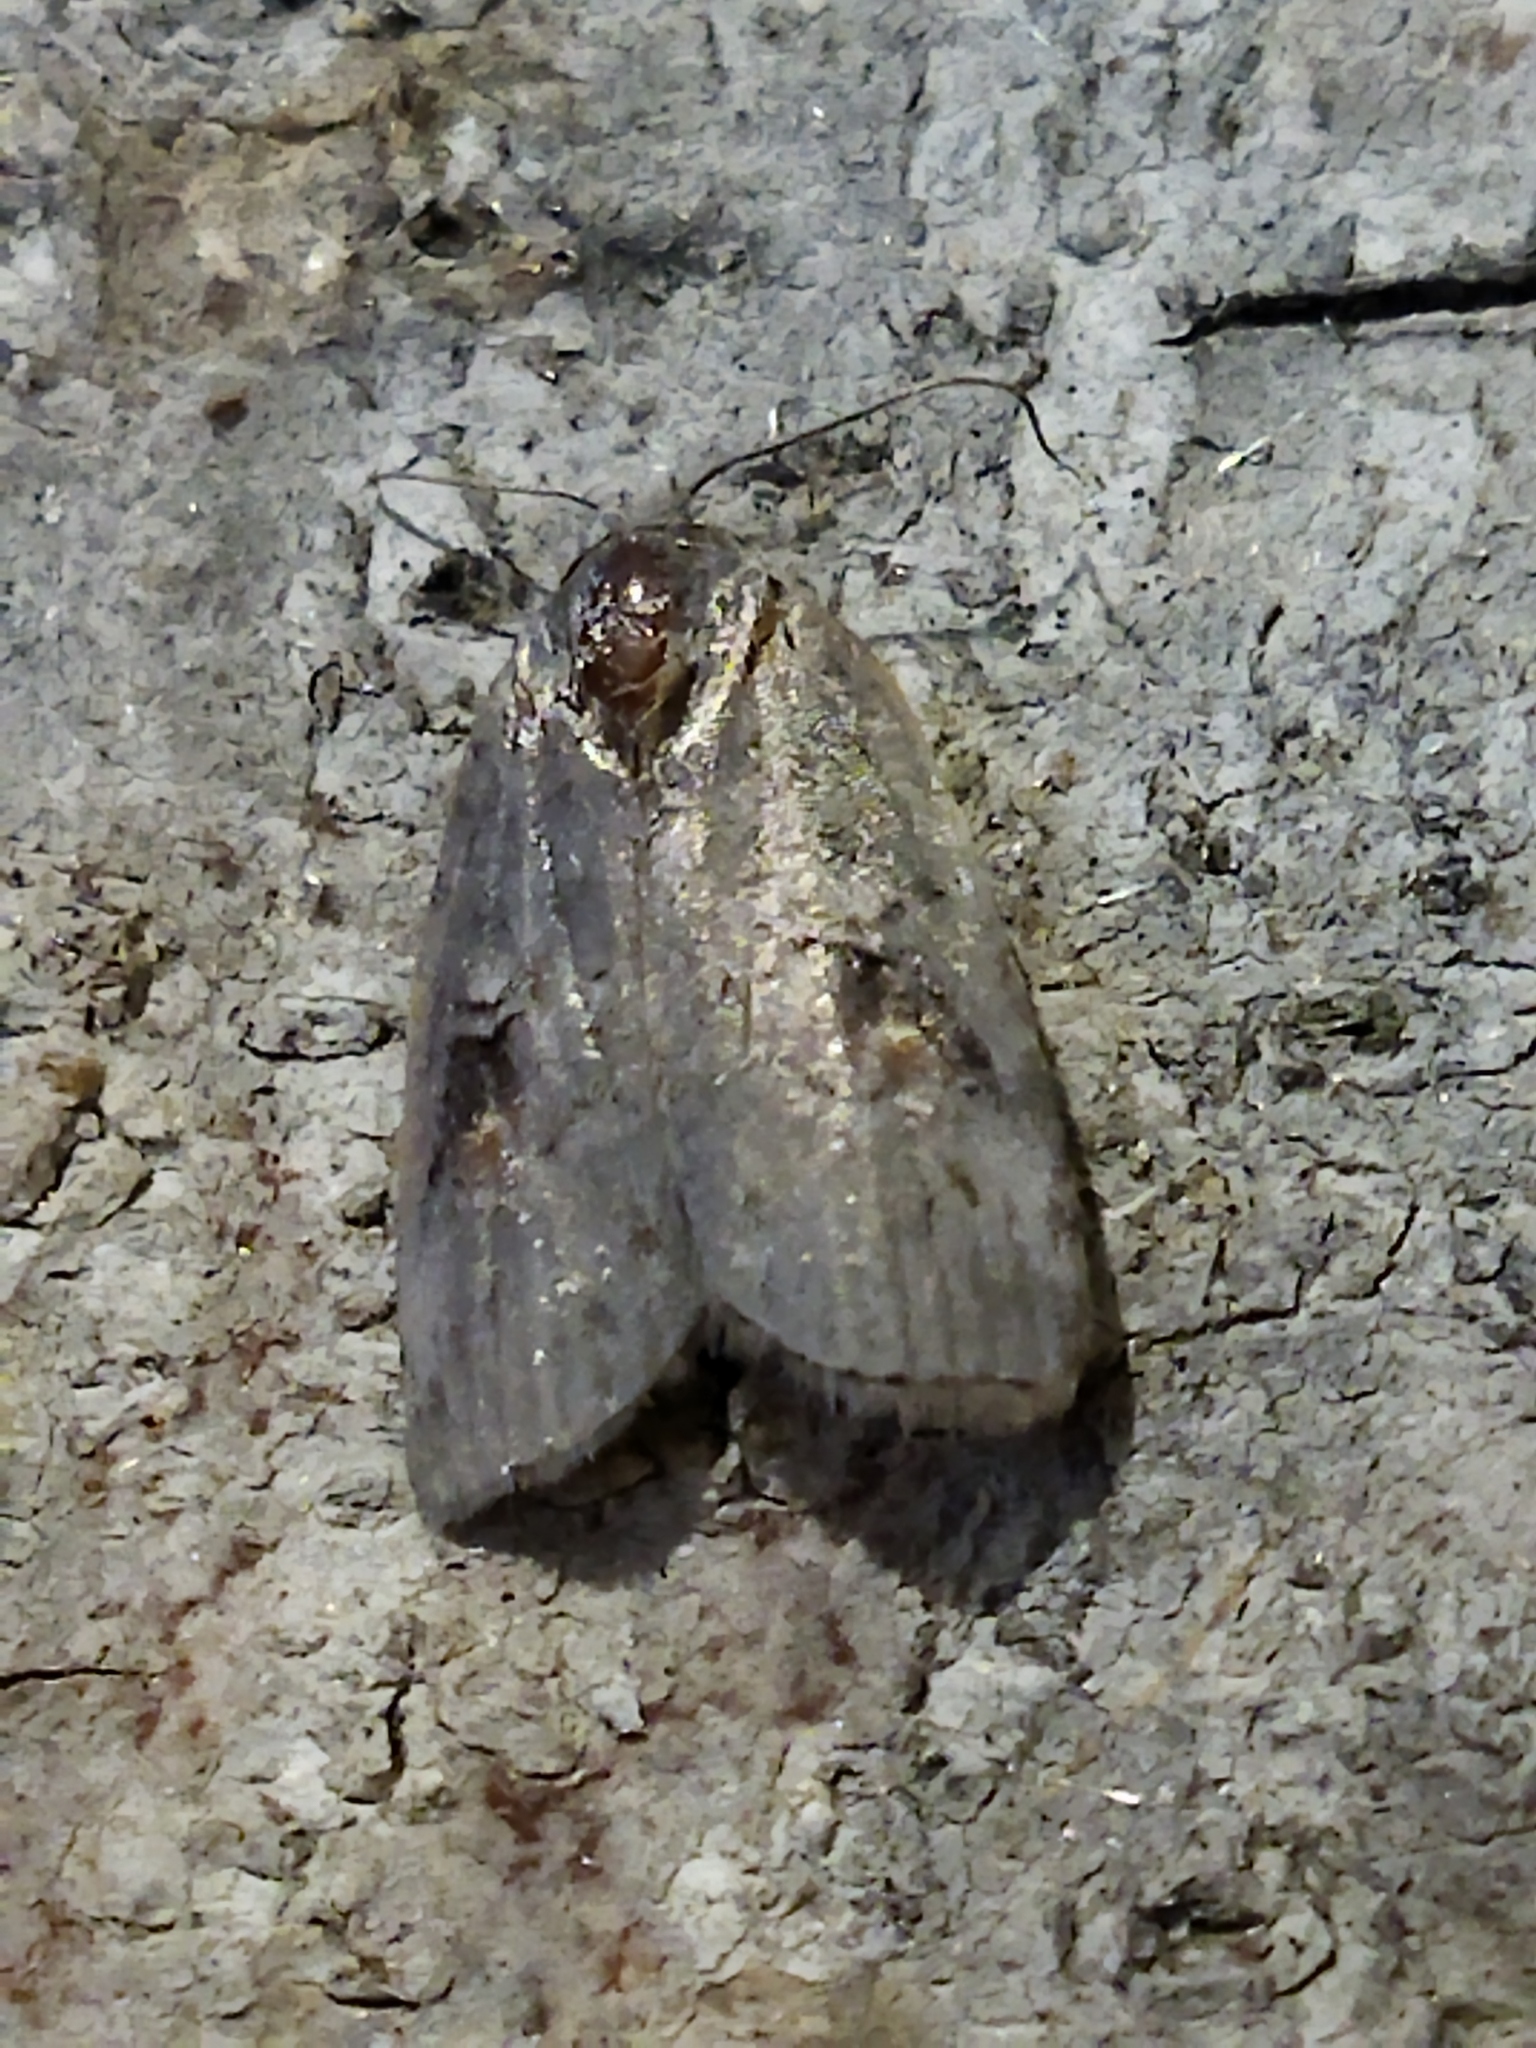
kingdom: Animalia
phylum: Arthropoda
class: Insecta
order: Lepidoptera
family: Nolidae
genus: Nycteola
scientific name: Nycteola
